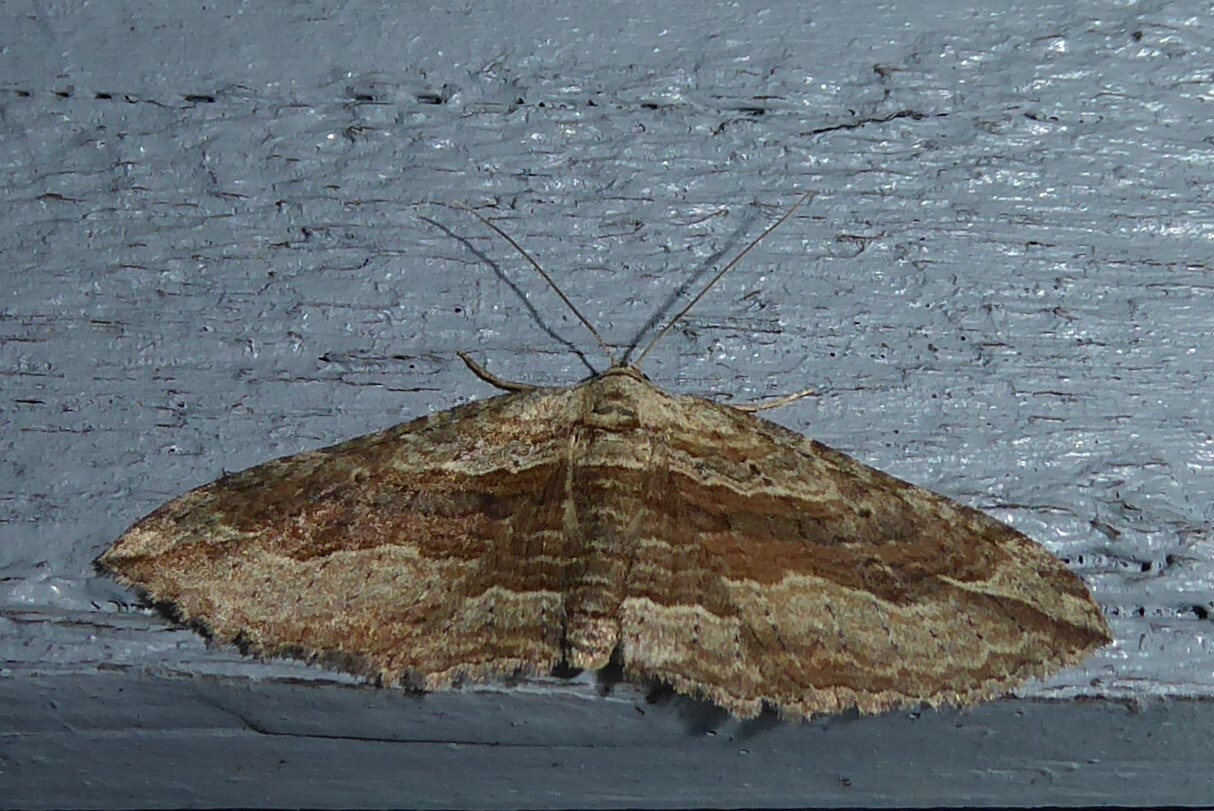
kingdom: Animalia
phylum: Arthropoda
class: Insecta
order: Lepidoptera
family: Geometridae
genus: Austrocidaria
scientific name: Austrocidaria gobiata
